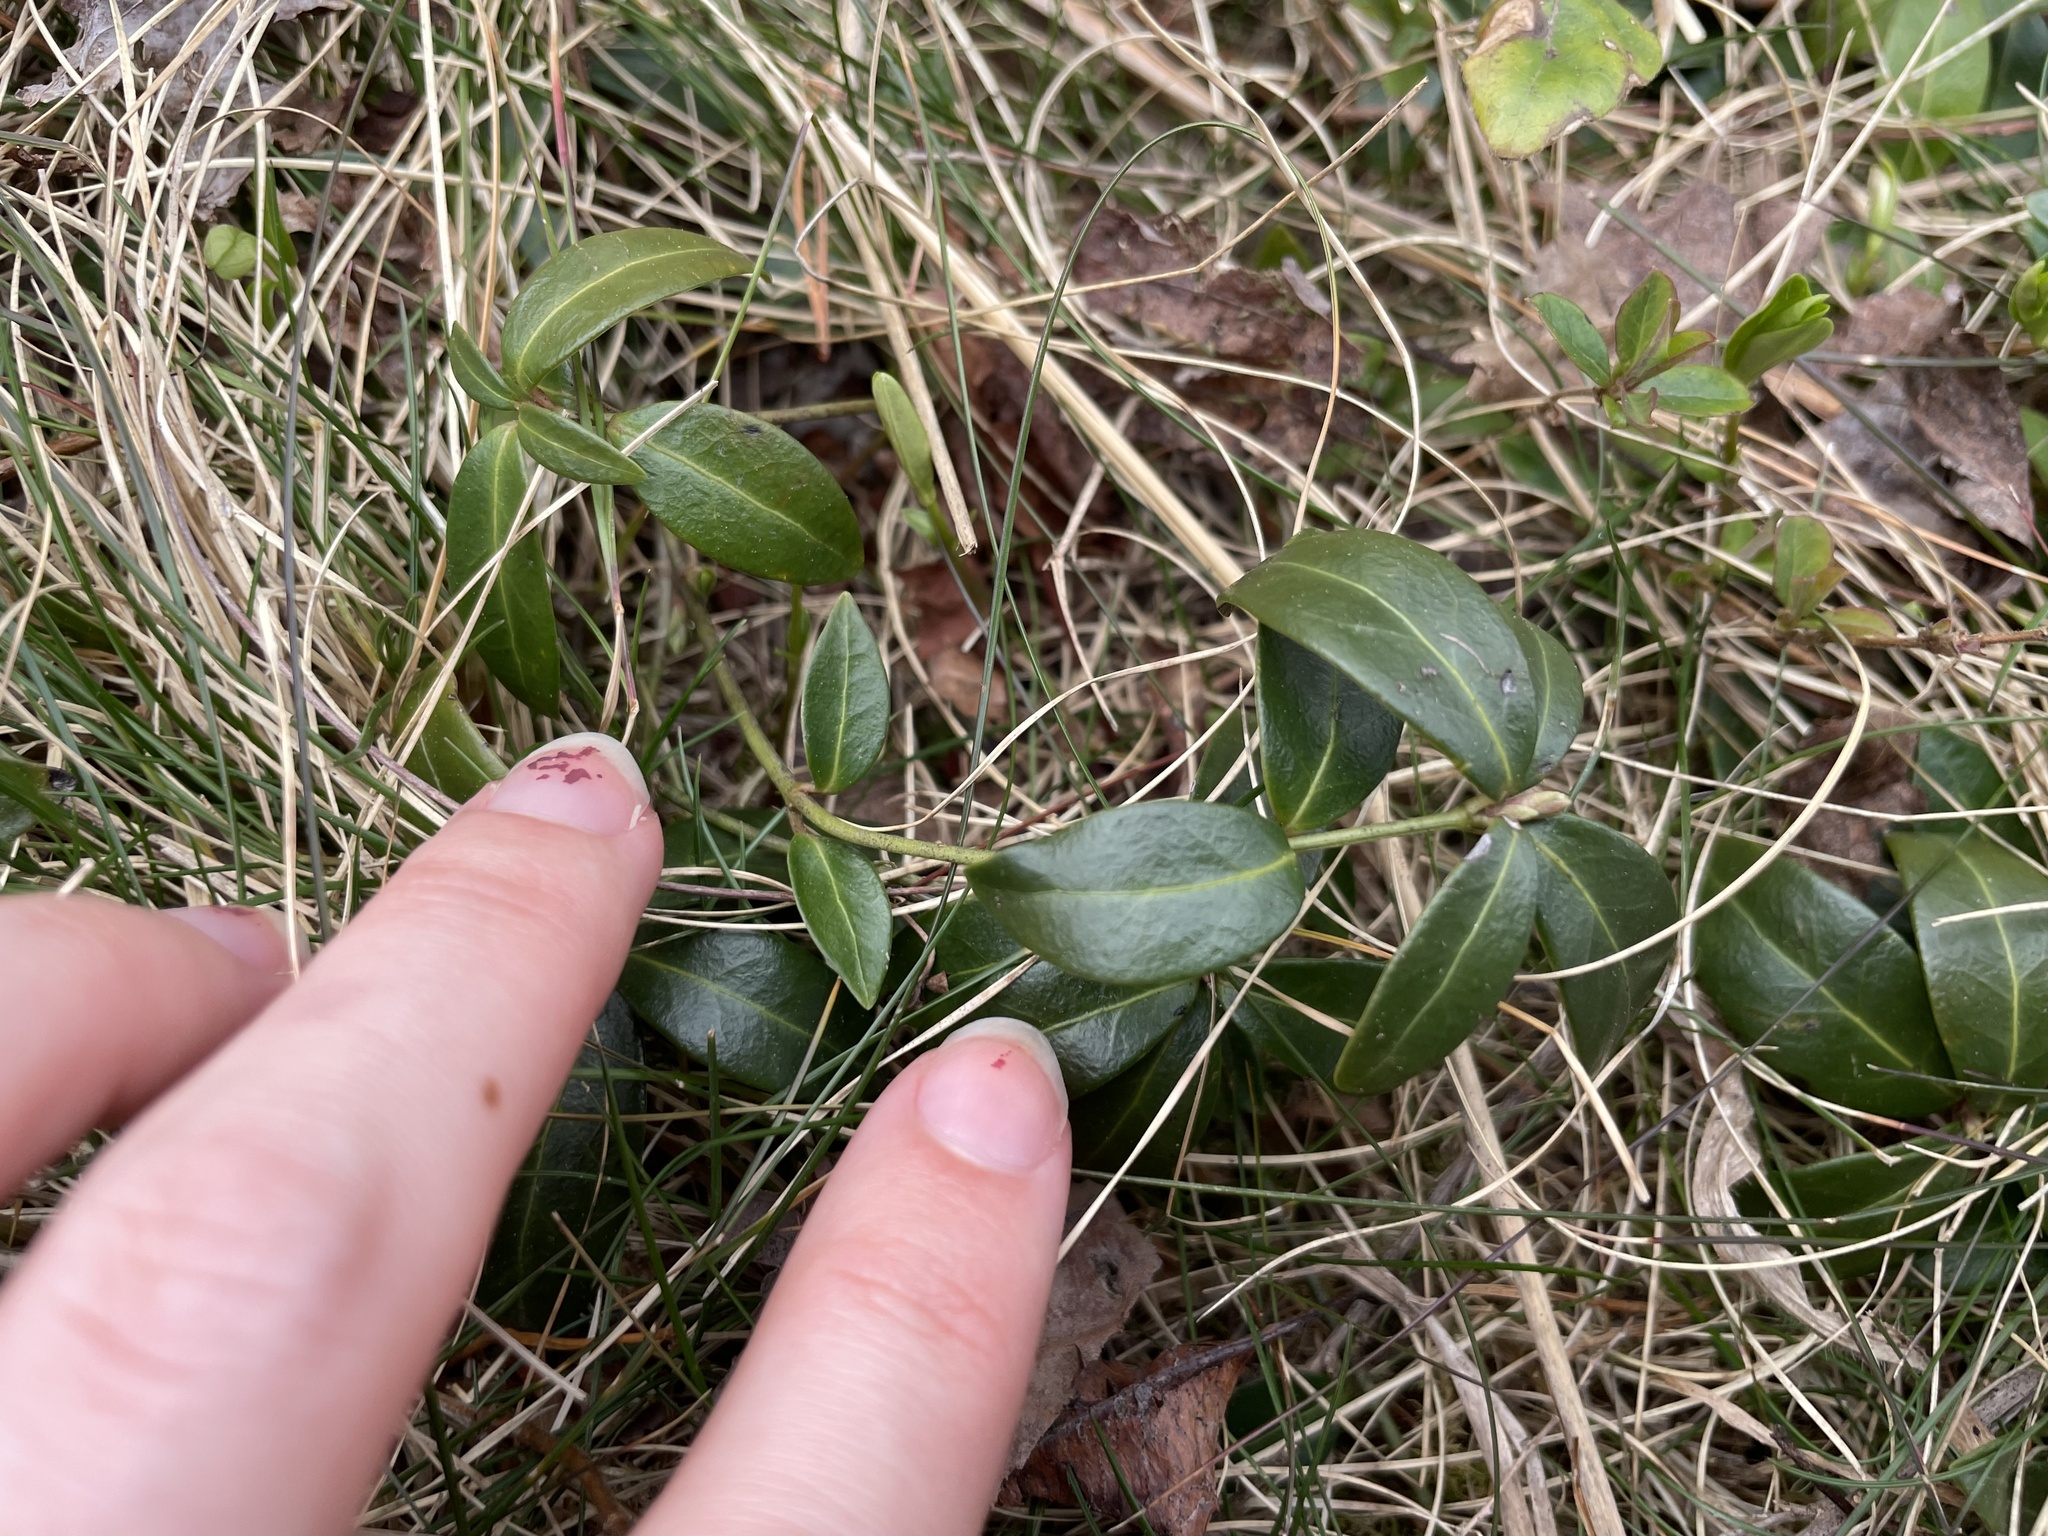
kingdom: Plantae
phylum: Tracheophyta
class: Magnoliopsida
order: Gentianales
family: Apocynaceae
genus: Vinca
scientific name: Vinca minor
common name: Lesser periwinkle
